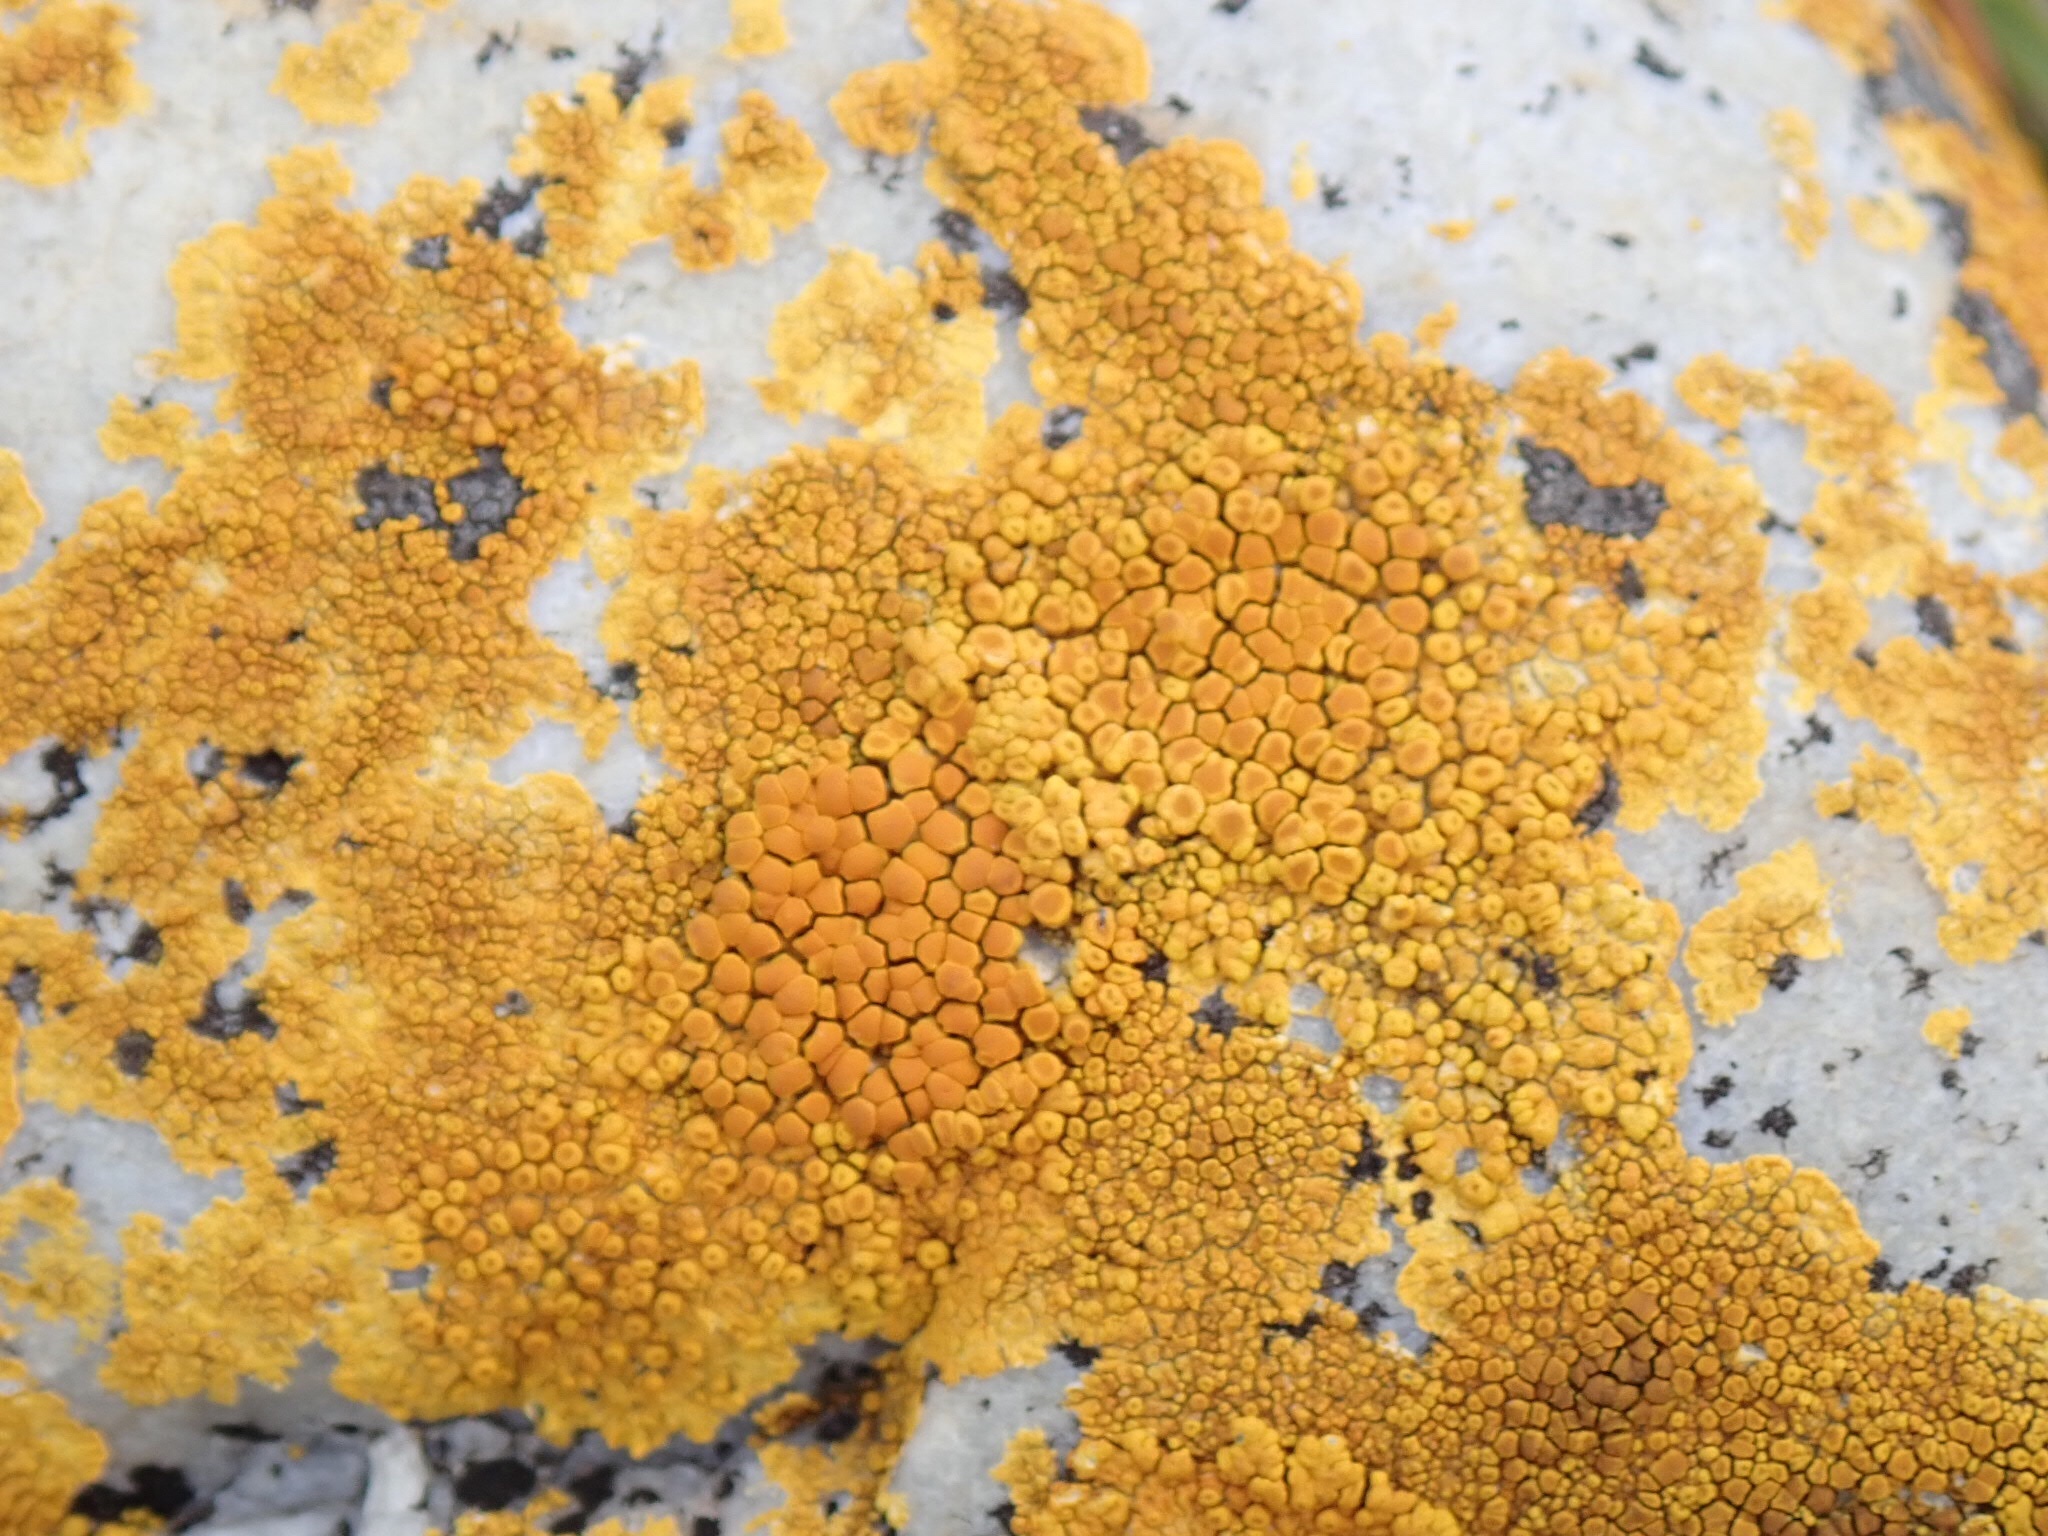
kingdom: Fungi
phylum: Ascomycota
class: Lecanoromycetes
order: Teloschistales
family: Teloschistaceae
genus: Xanthoria
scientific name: Xanthoria elegans
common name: Elegant sunburst lichen
